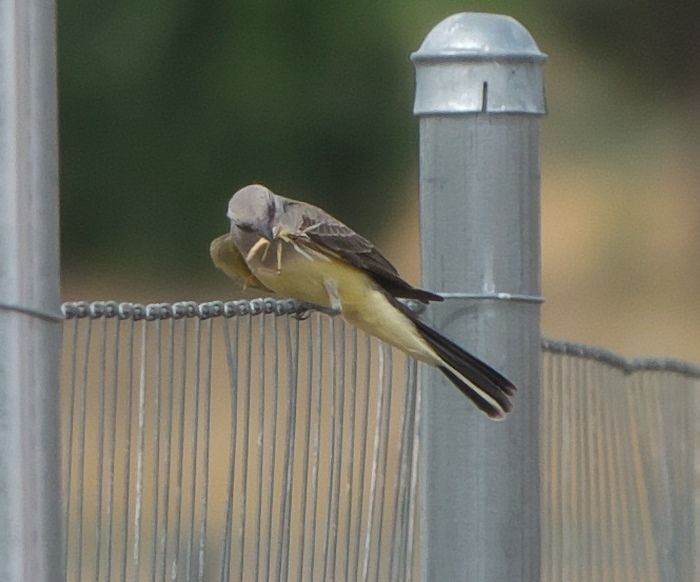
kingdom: Animalia
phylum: Chordata
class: Aves
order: Passeriformes
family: Tyrannidae
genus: Tyrannus
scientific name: Tyrannus verticalis
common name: Western kingbird
